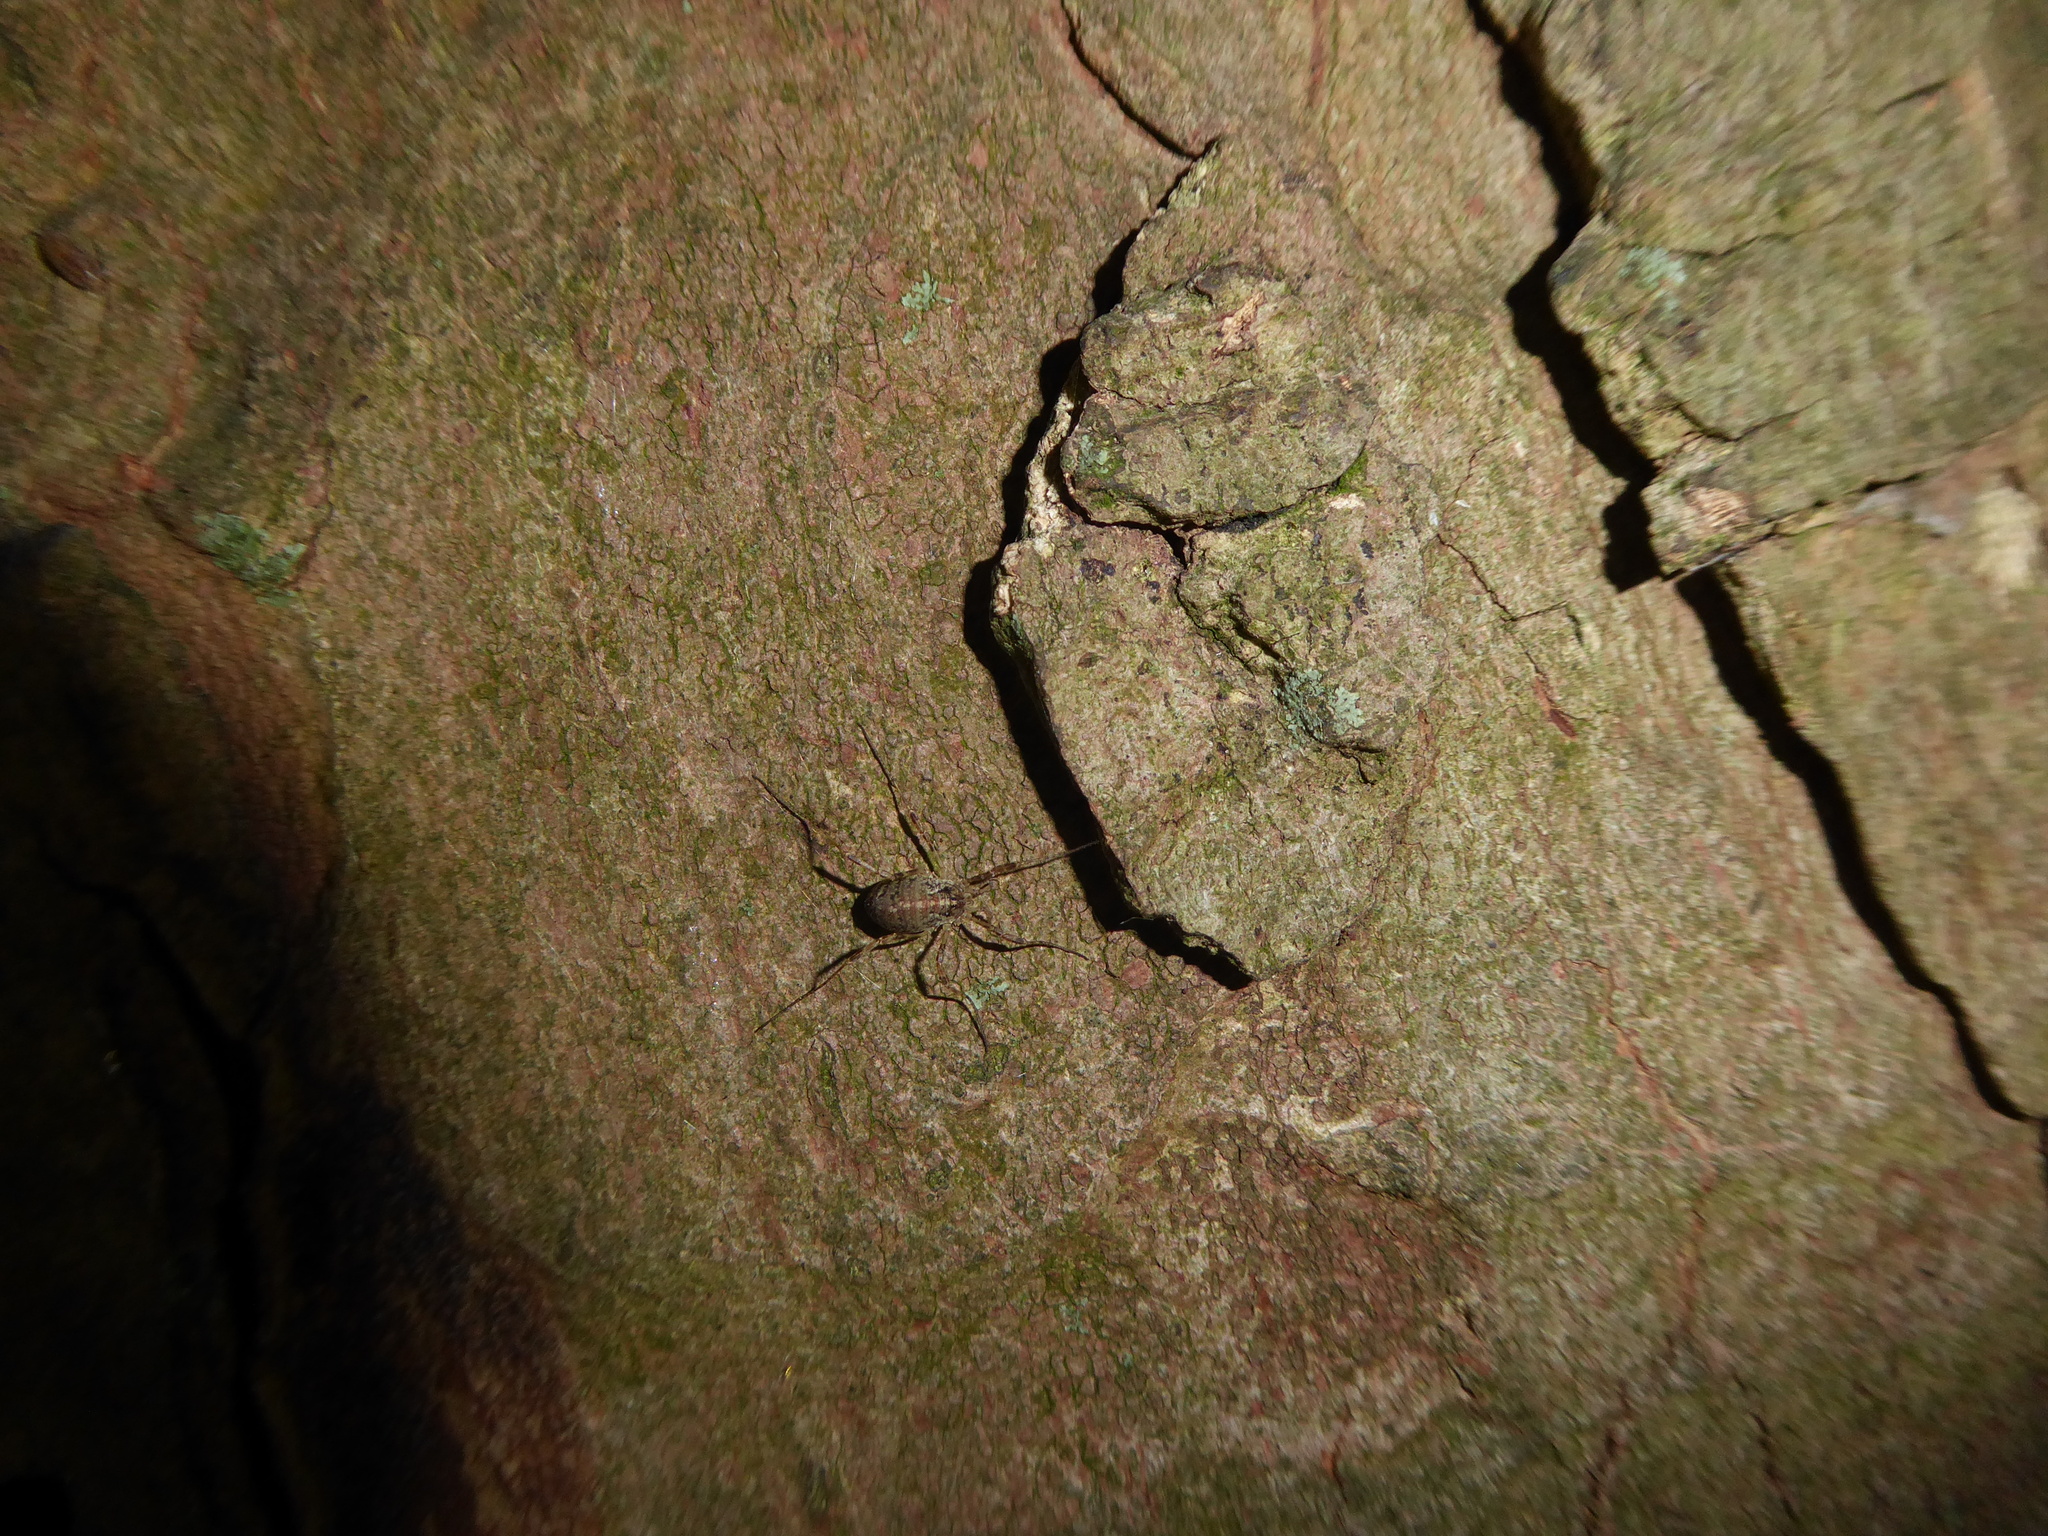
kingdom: Animalia
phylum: Arthropoda
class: Arachnida
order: Opiliones
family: Phalangiidae
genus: Paroligolophus
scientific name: Paroligolophus agrestis
